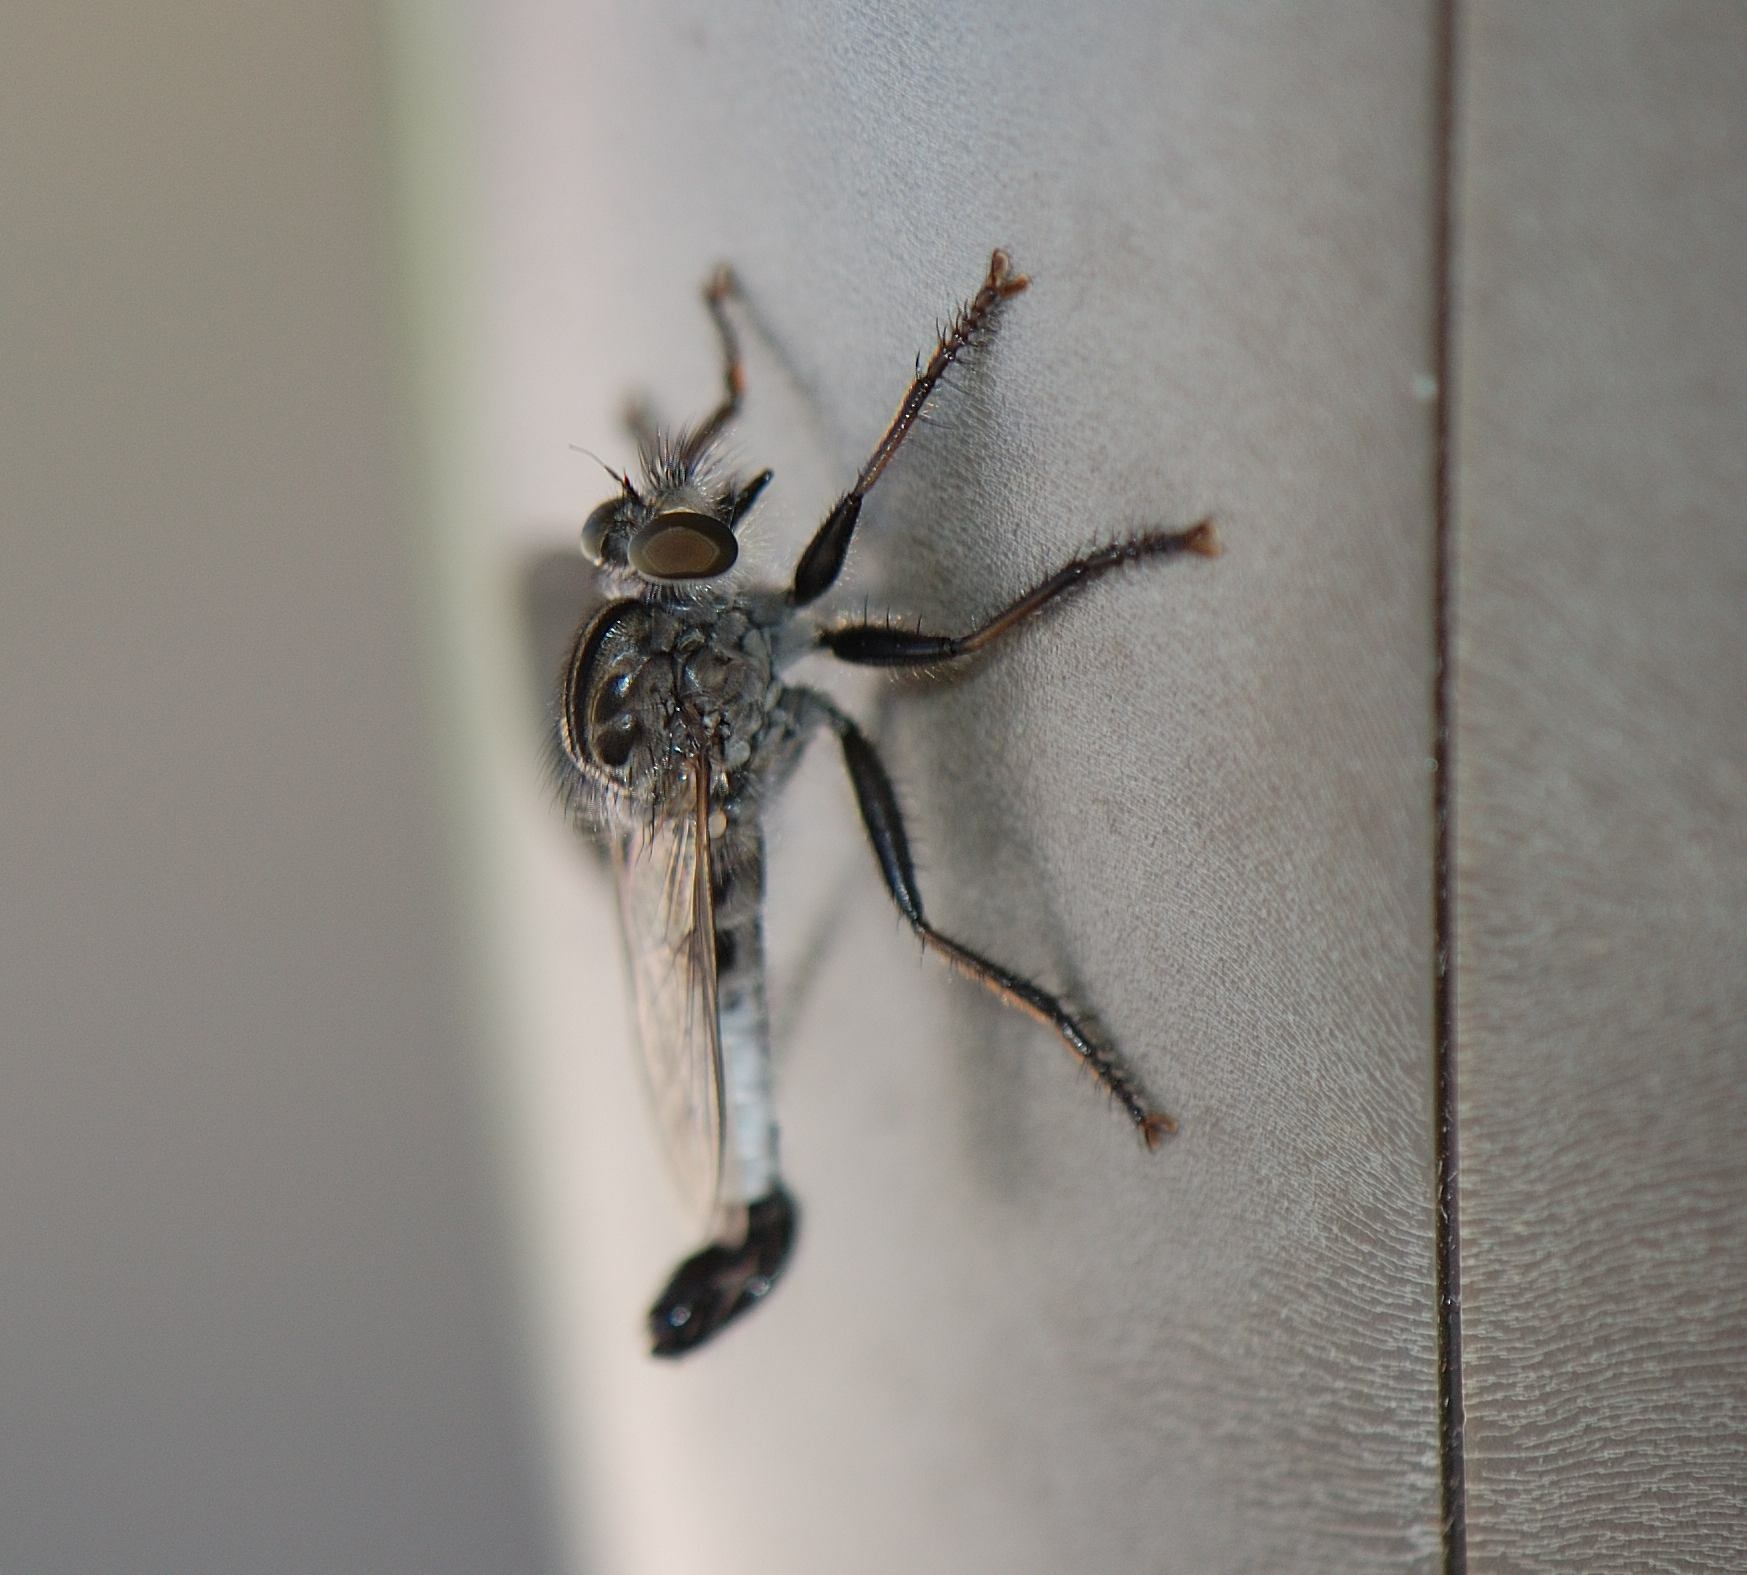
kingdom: Animalia
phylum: Arthropoda
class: Insecta
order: Diptera
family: Asilidae
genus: Efferia
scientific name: Efferia aestuans
